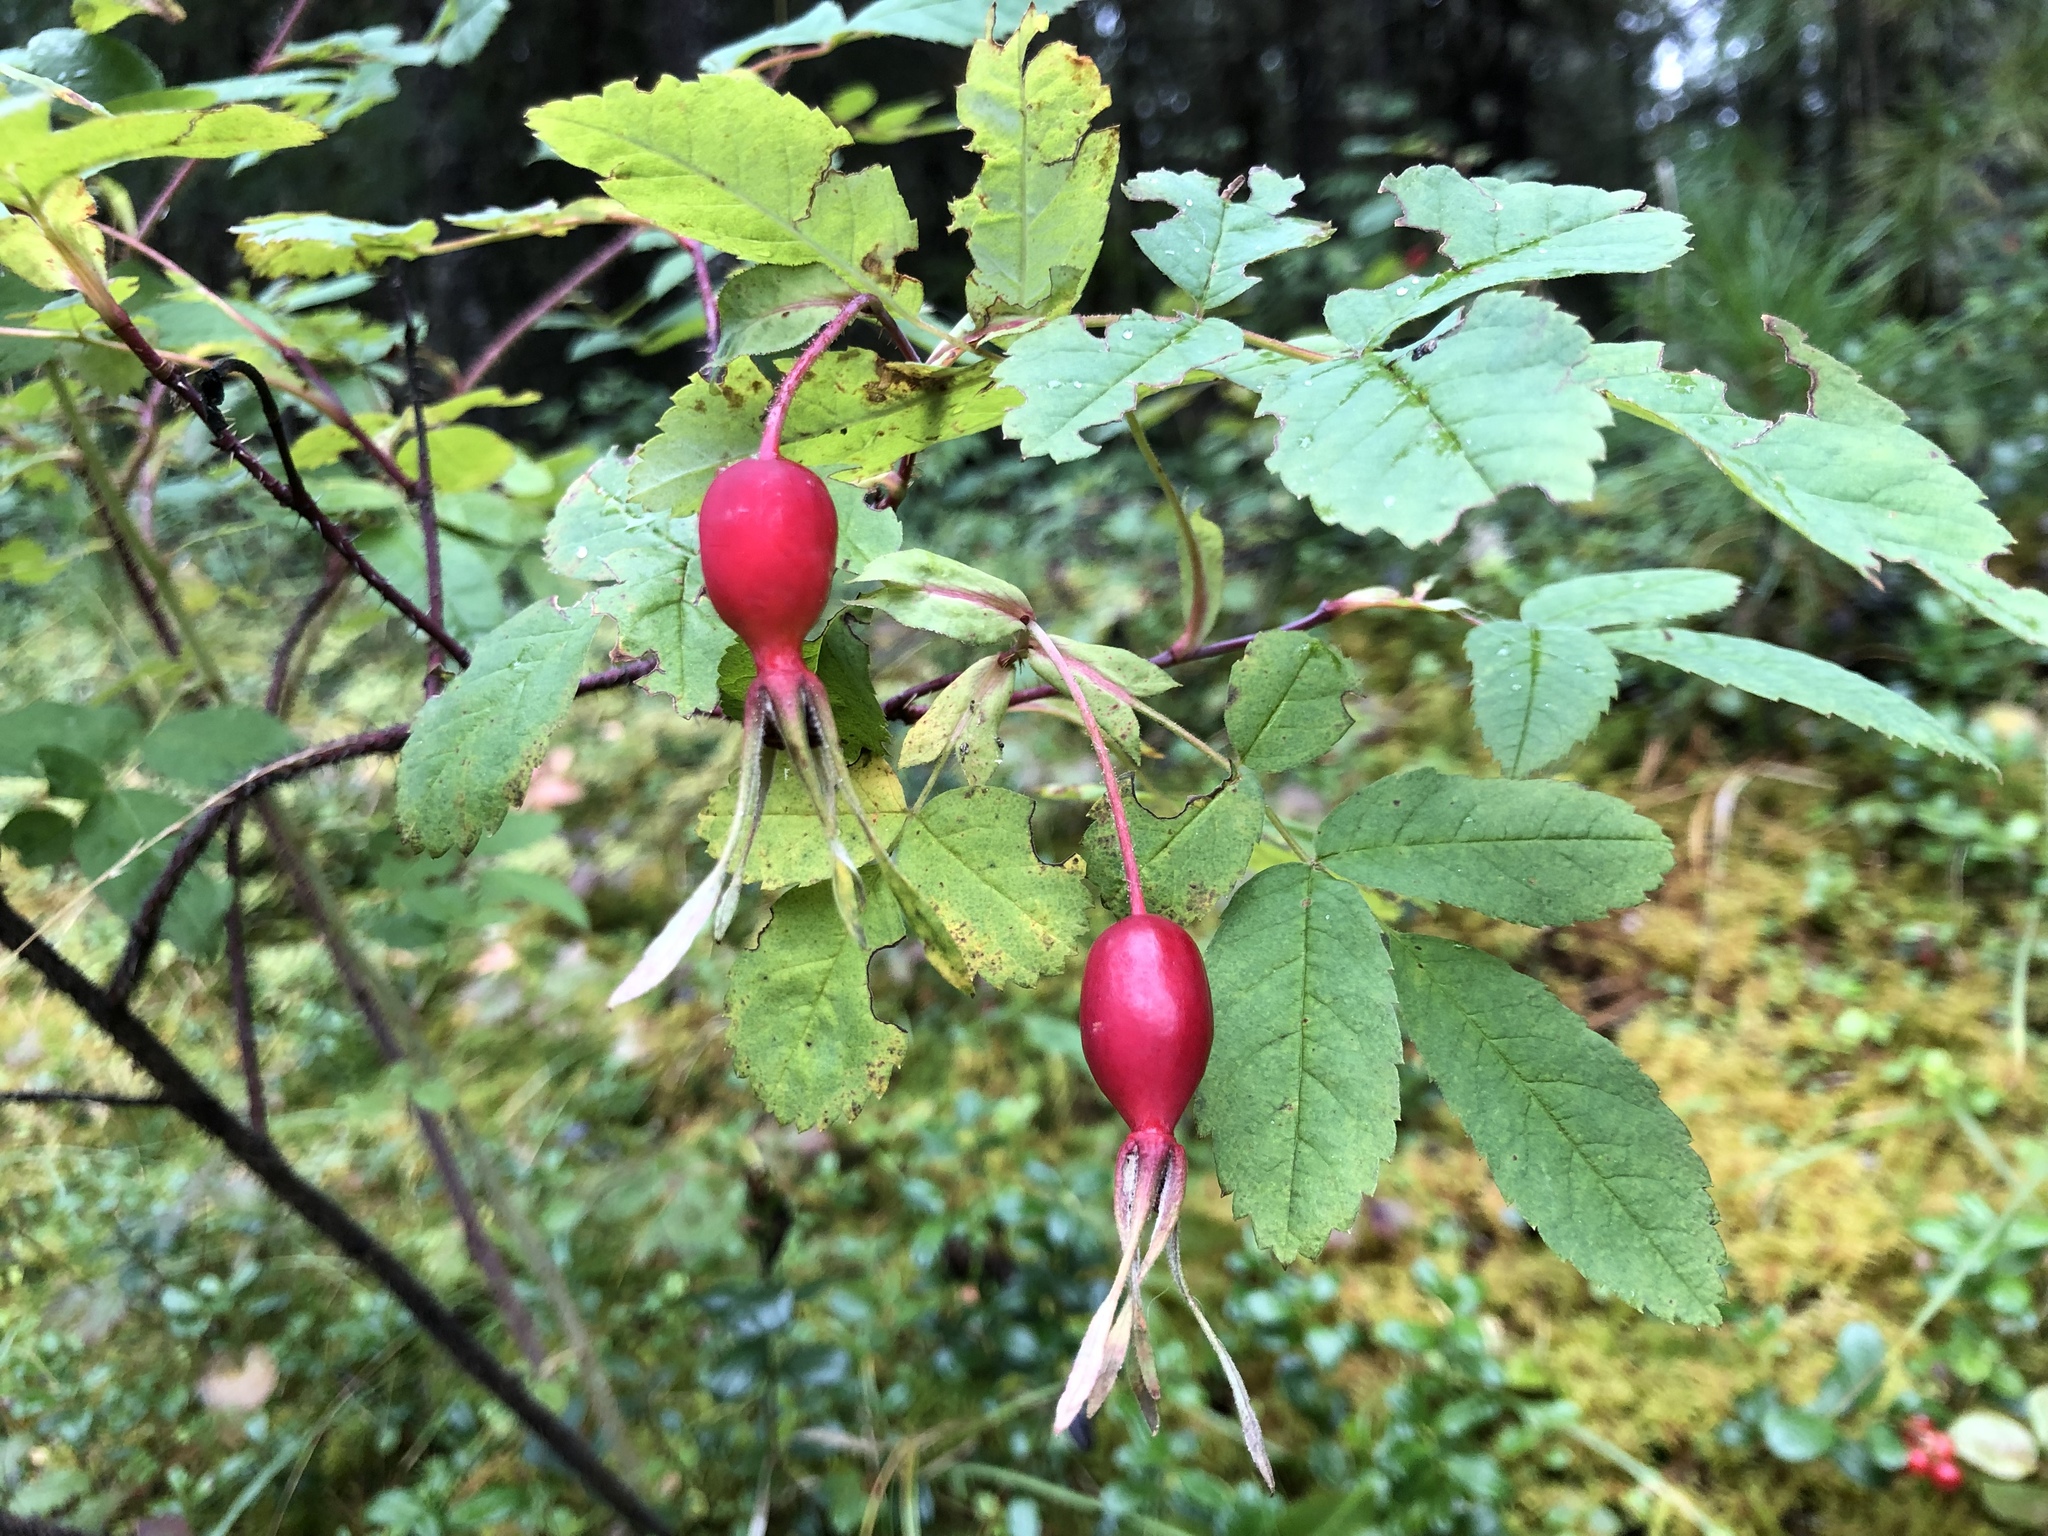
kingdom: Plantae
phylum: Tracheophyta
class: Magnoliopsida
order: Rosales
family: Rosaceae
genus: Rosa
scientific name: Rosa acicularis
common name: Prickly rose
